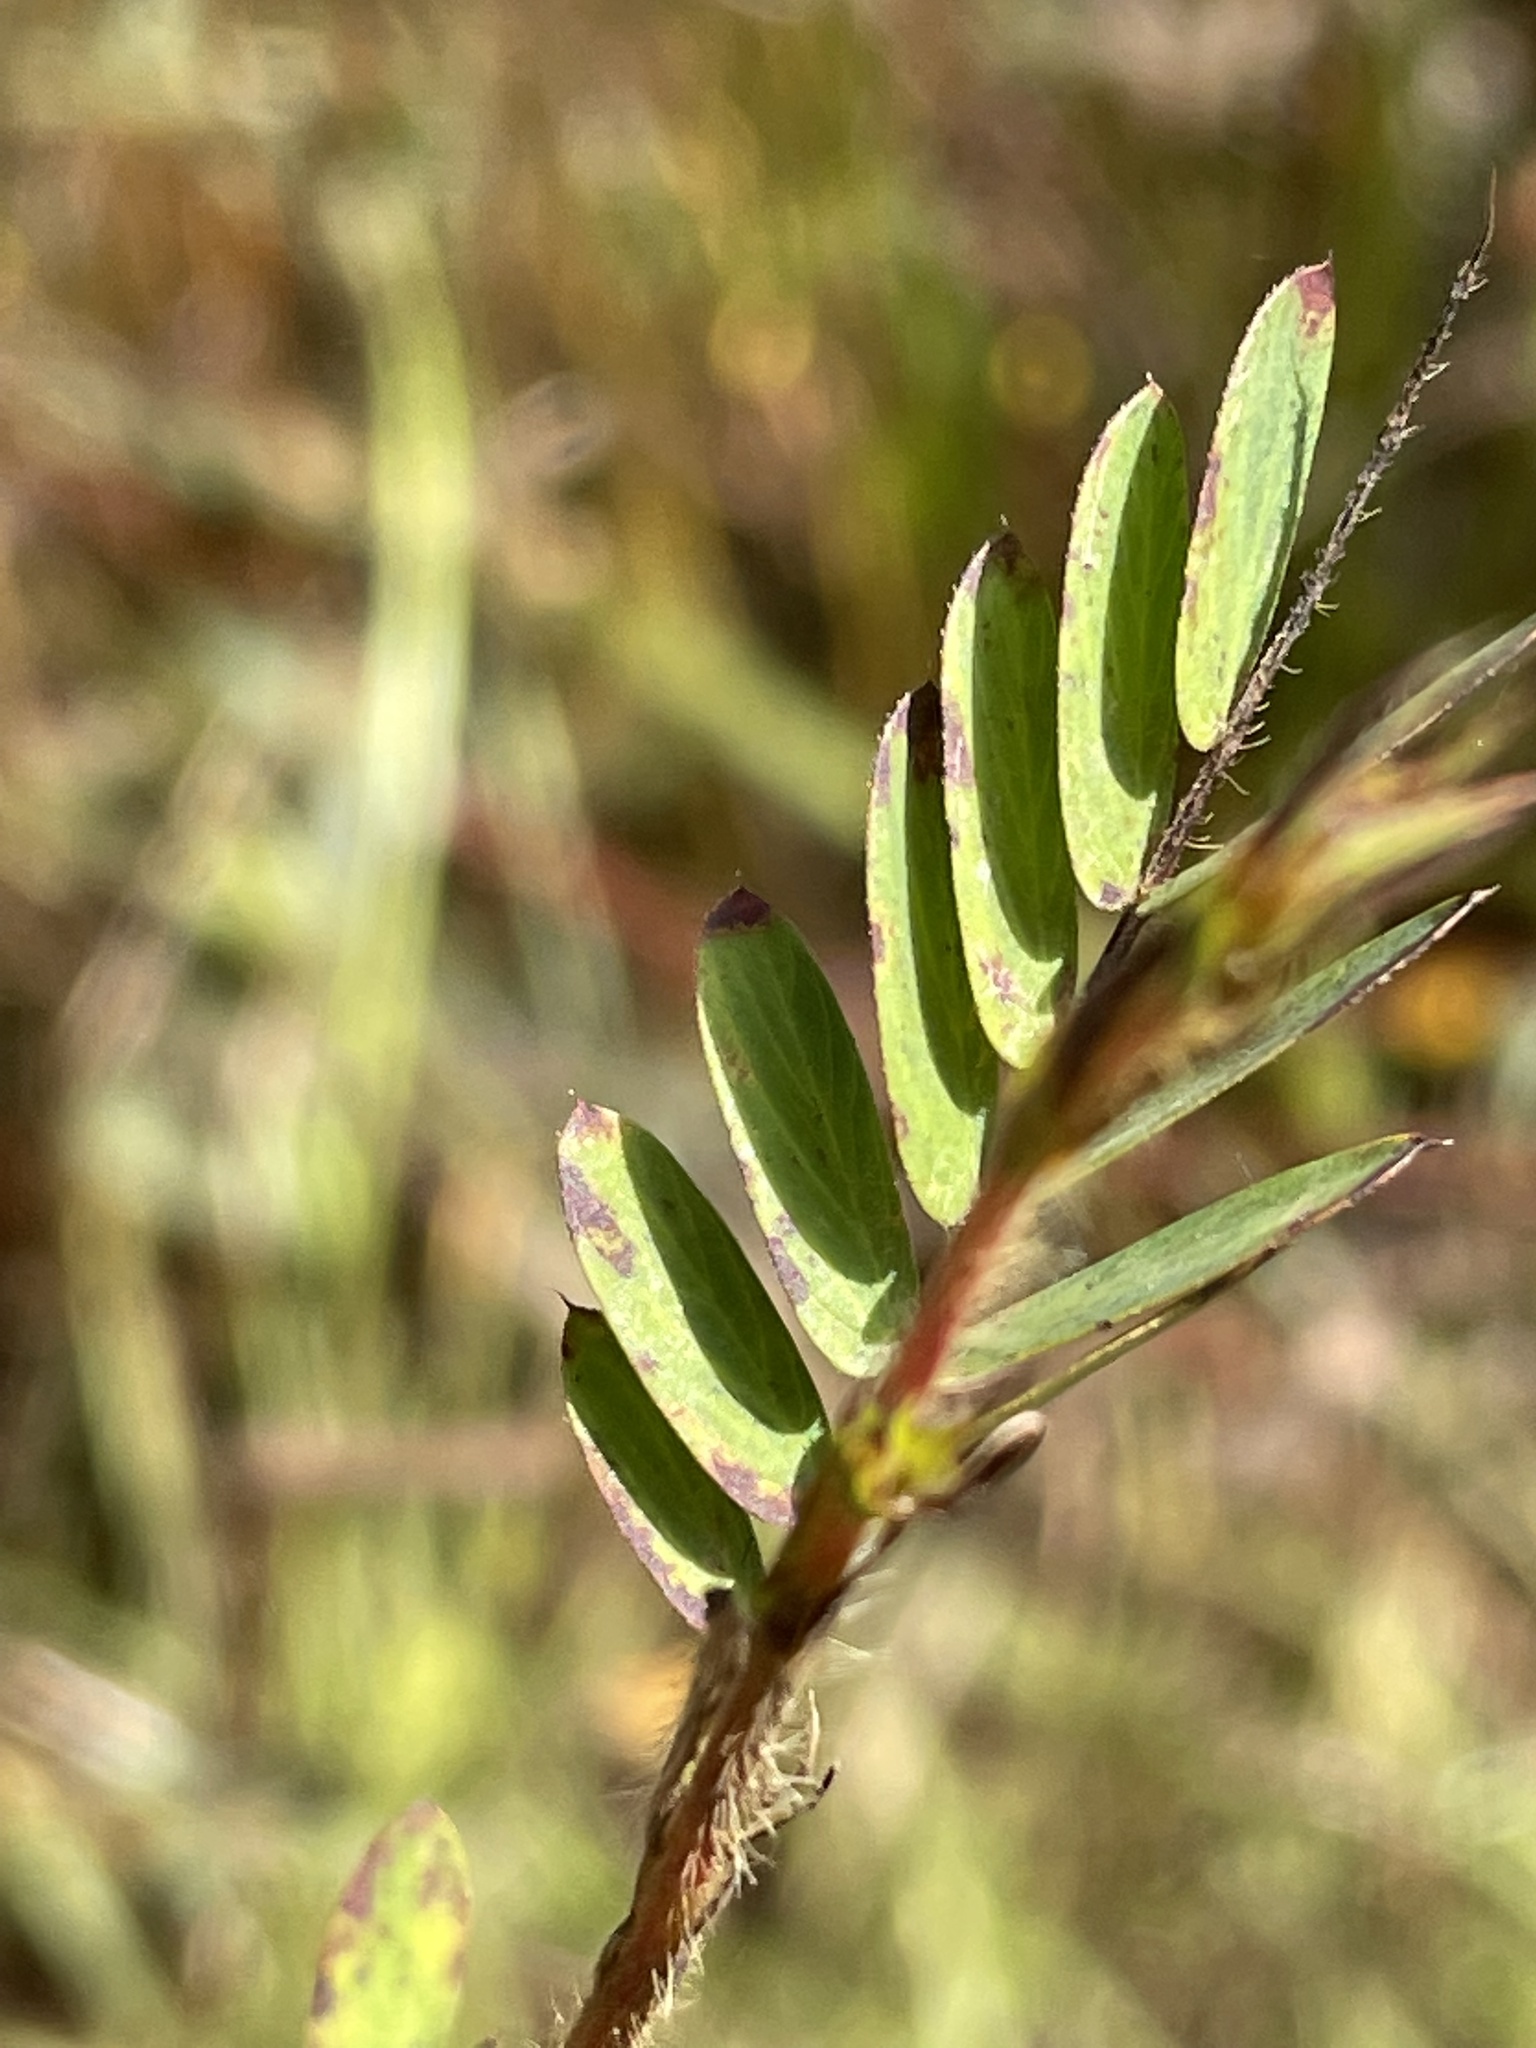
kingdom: Plantae
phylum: Tracheophyta
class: Magnoliopsida
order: Fabales
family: Fabaceae
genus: Chamaecrista
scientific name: Chamaecrista fasciculata
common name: Golden cassia
